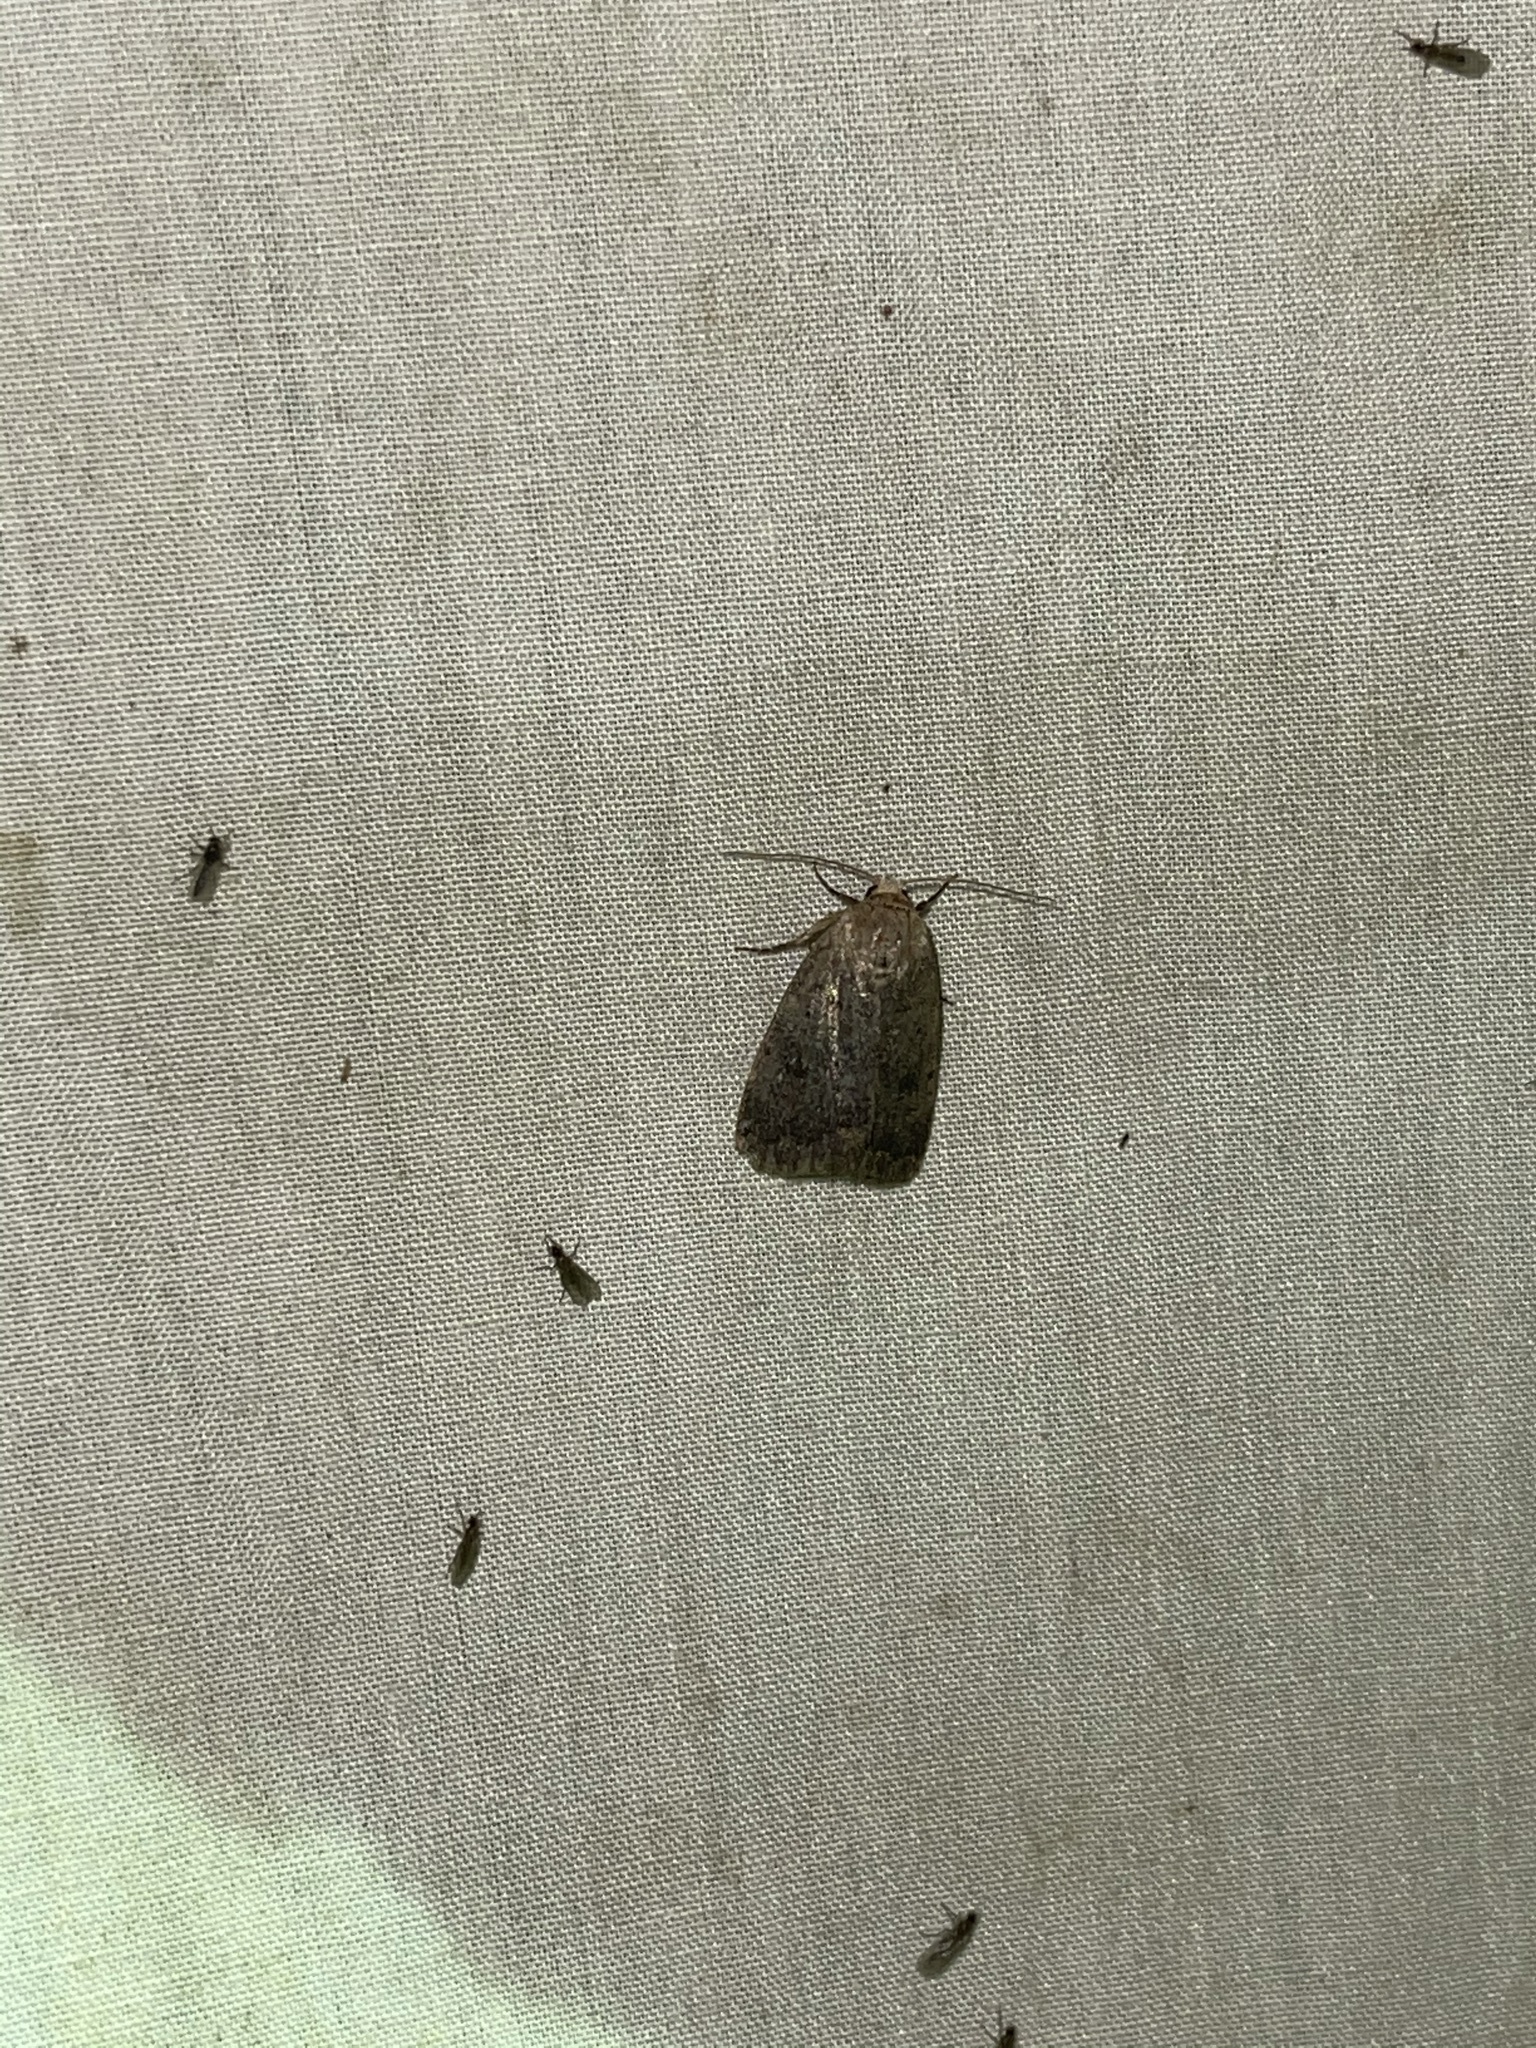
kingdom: Animalia
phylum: Arthropoda
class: Insecta
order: Lepidoptera
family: Noctuidae
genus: Athetis
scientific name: Athetis tarda
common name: Slowpoke moth
